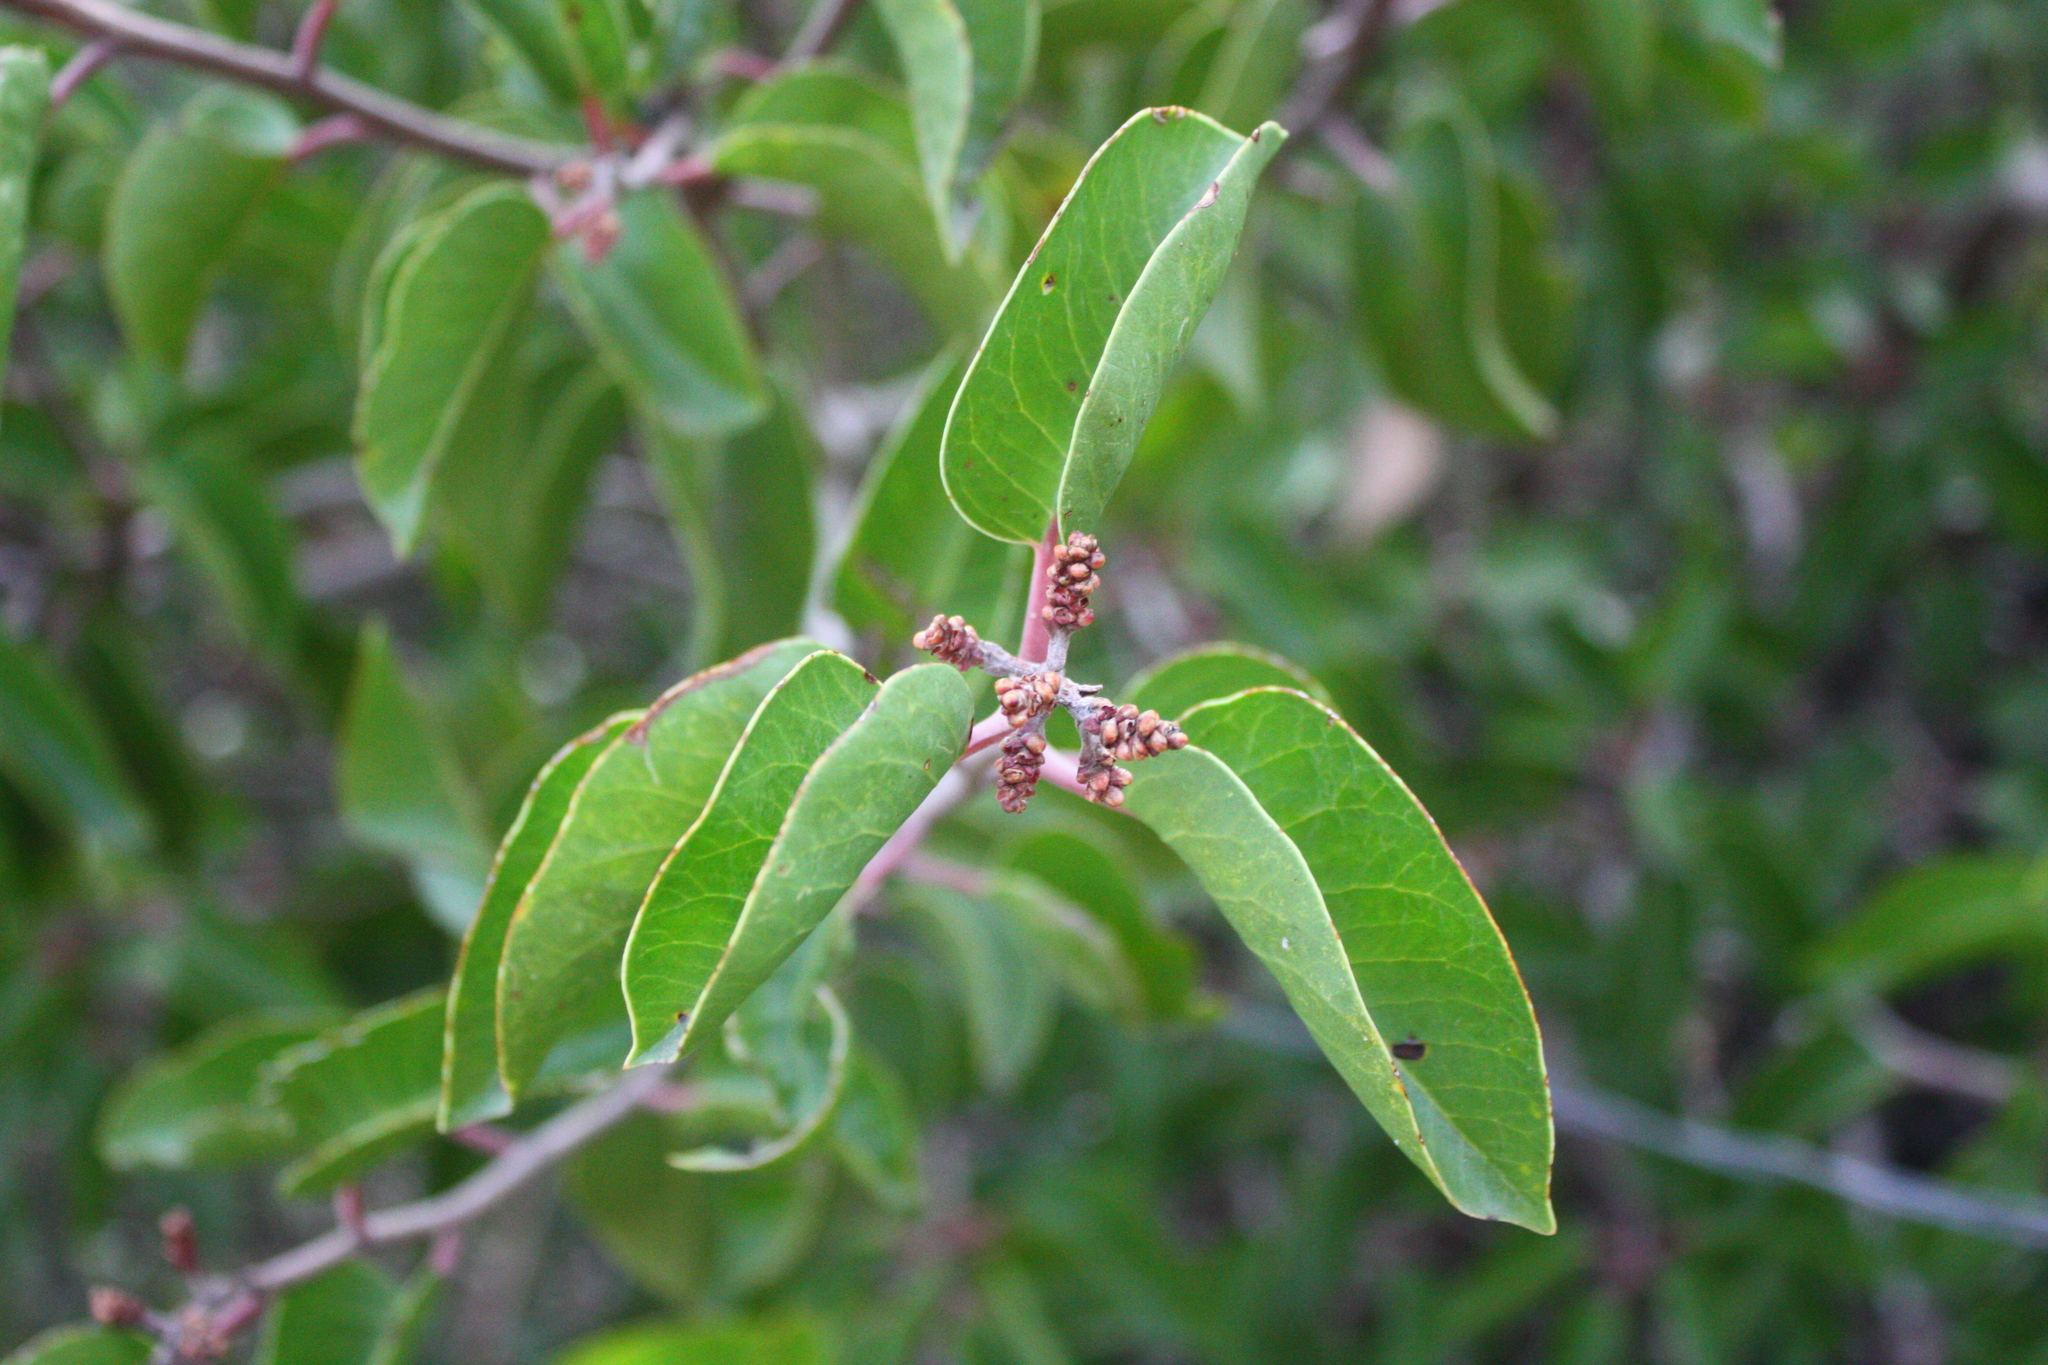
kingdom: Plantae
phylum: Tracheophyta
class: Magnoliopsida
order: Sapindales
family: Anacardiaceae
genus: Rhus
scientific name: Rhus ovata
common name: Sugar sumac
